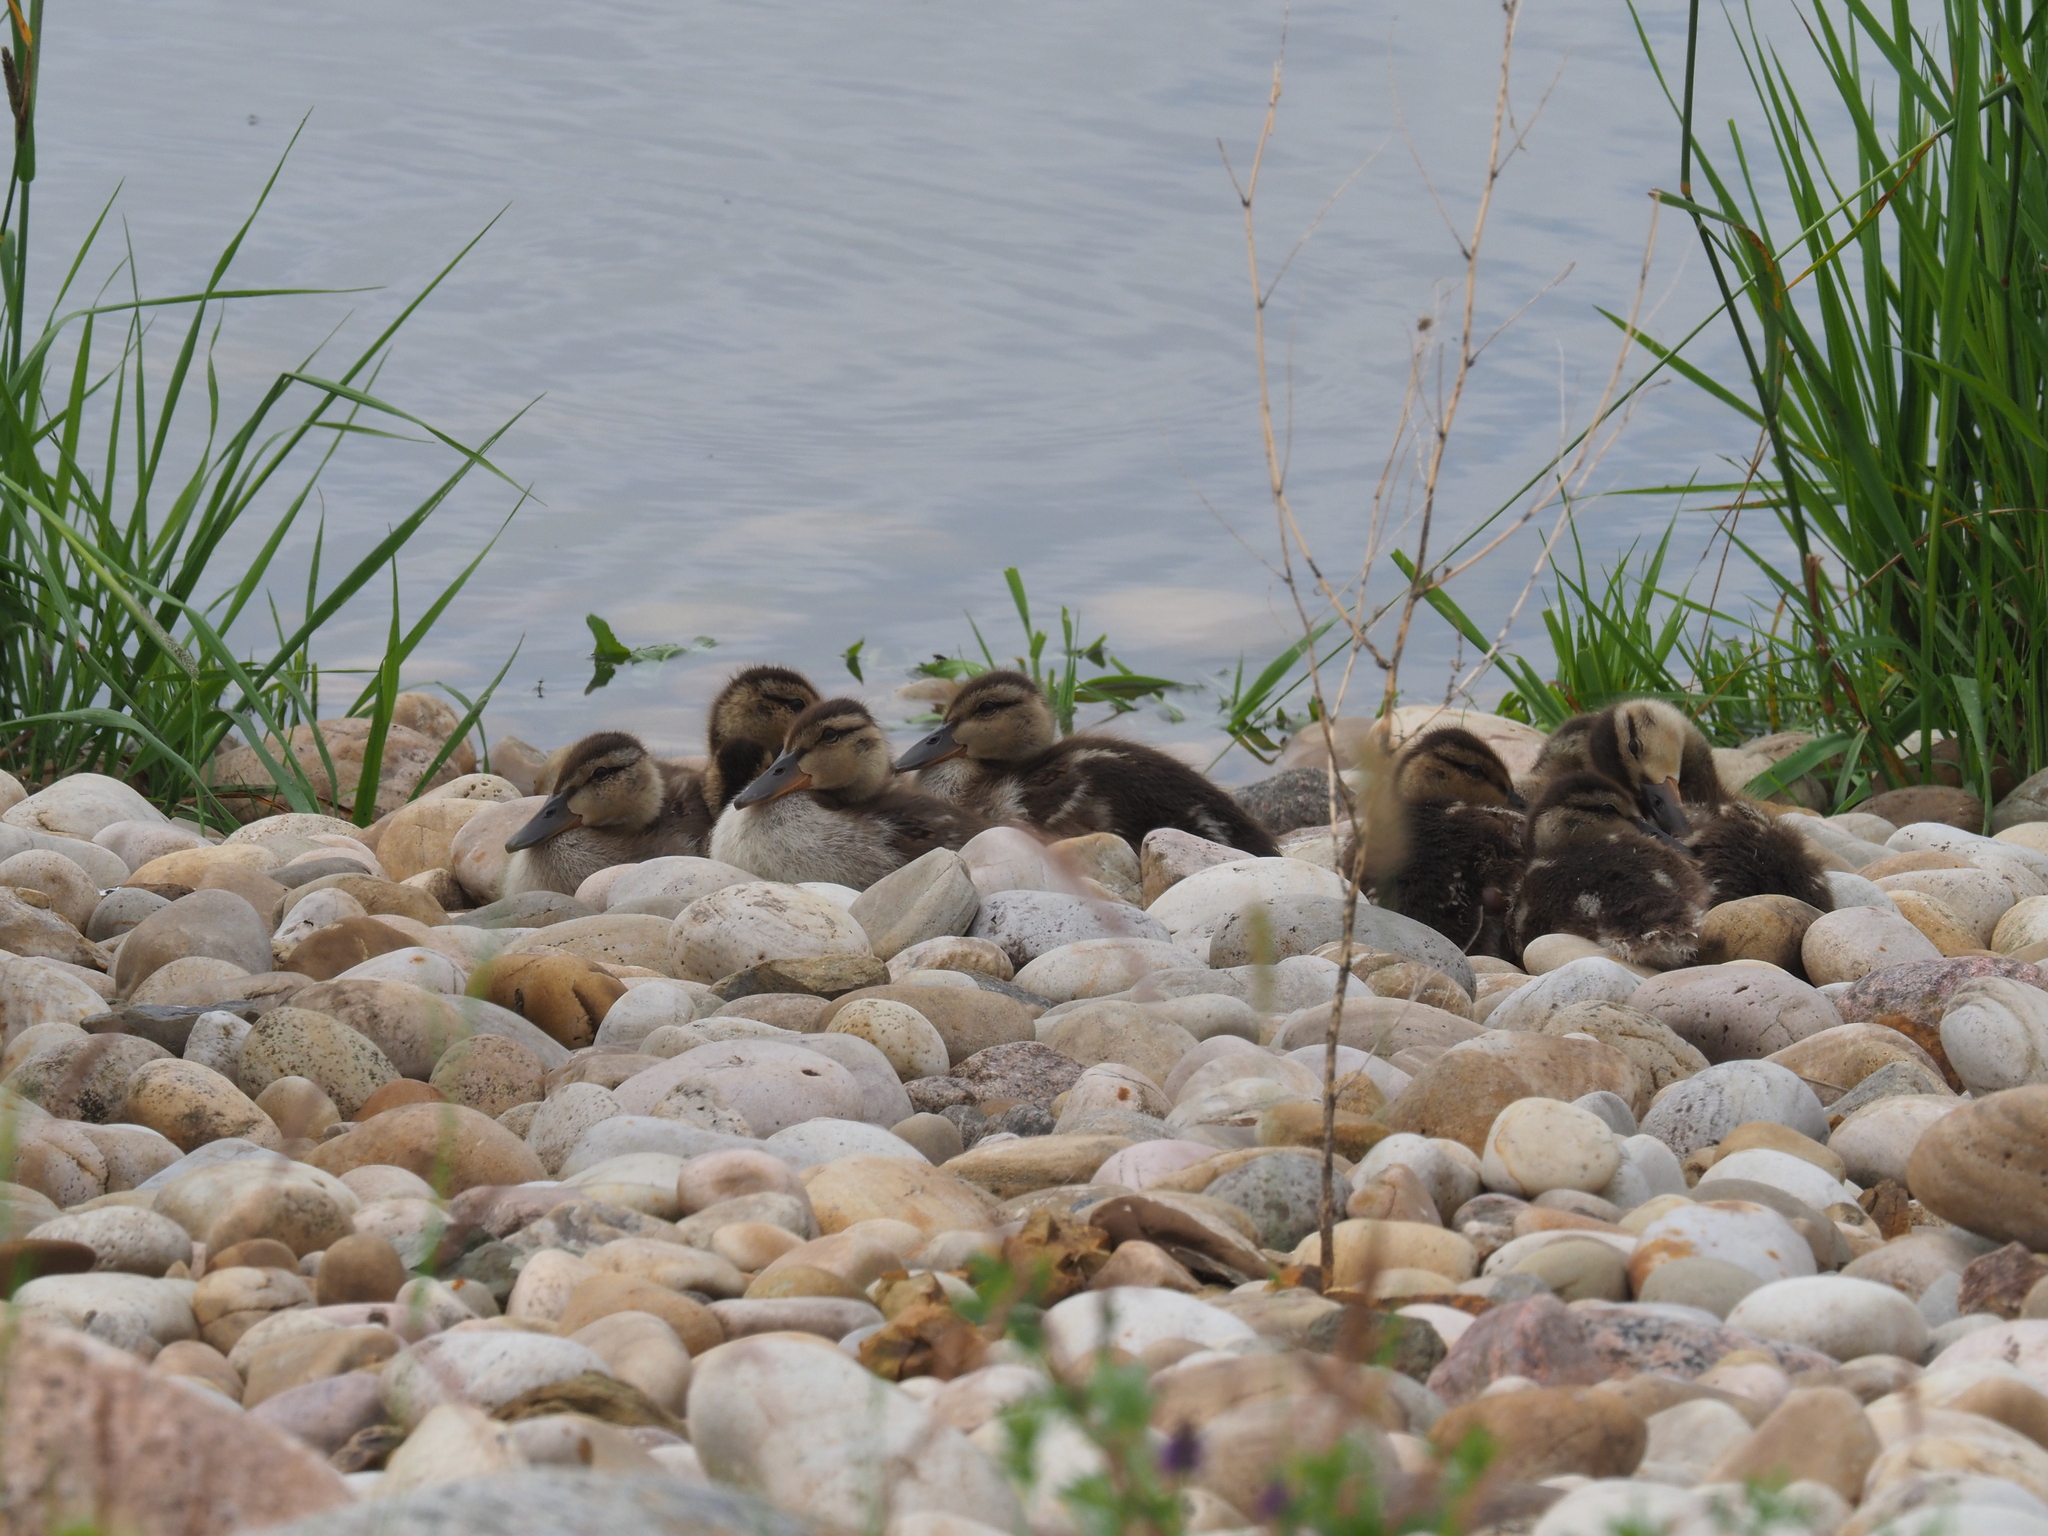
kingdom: Animalia
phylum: Chordata
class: Aves
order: Anseriformes
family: Anatidae
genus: Anas
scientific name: Anas platyrhynchos
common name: Mallard
